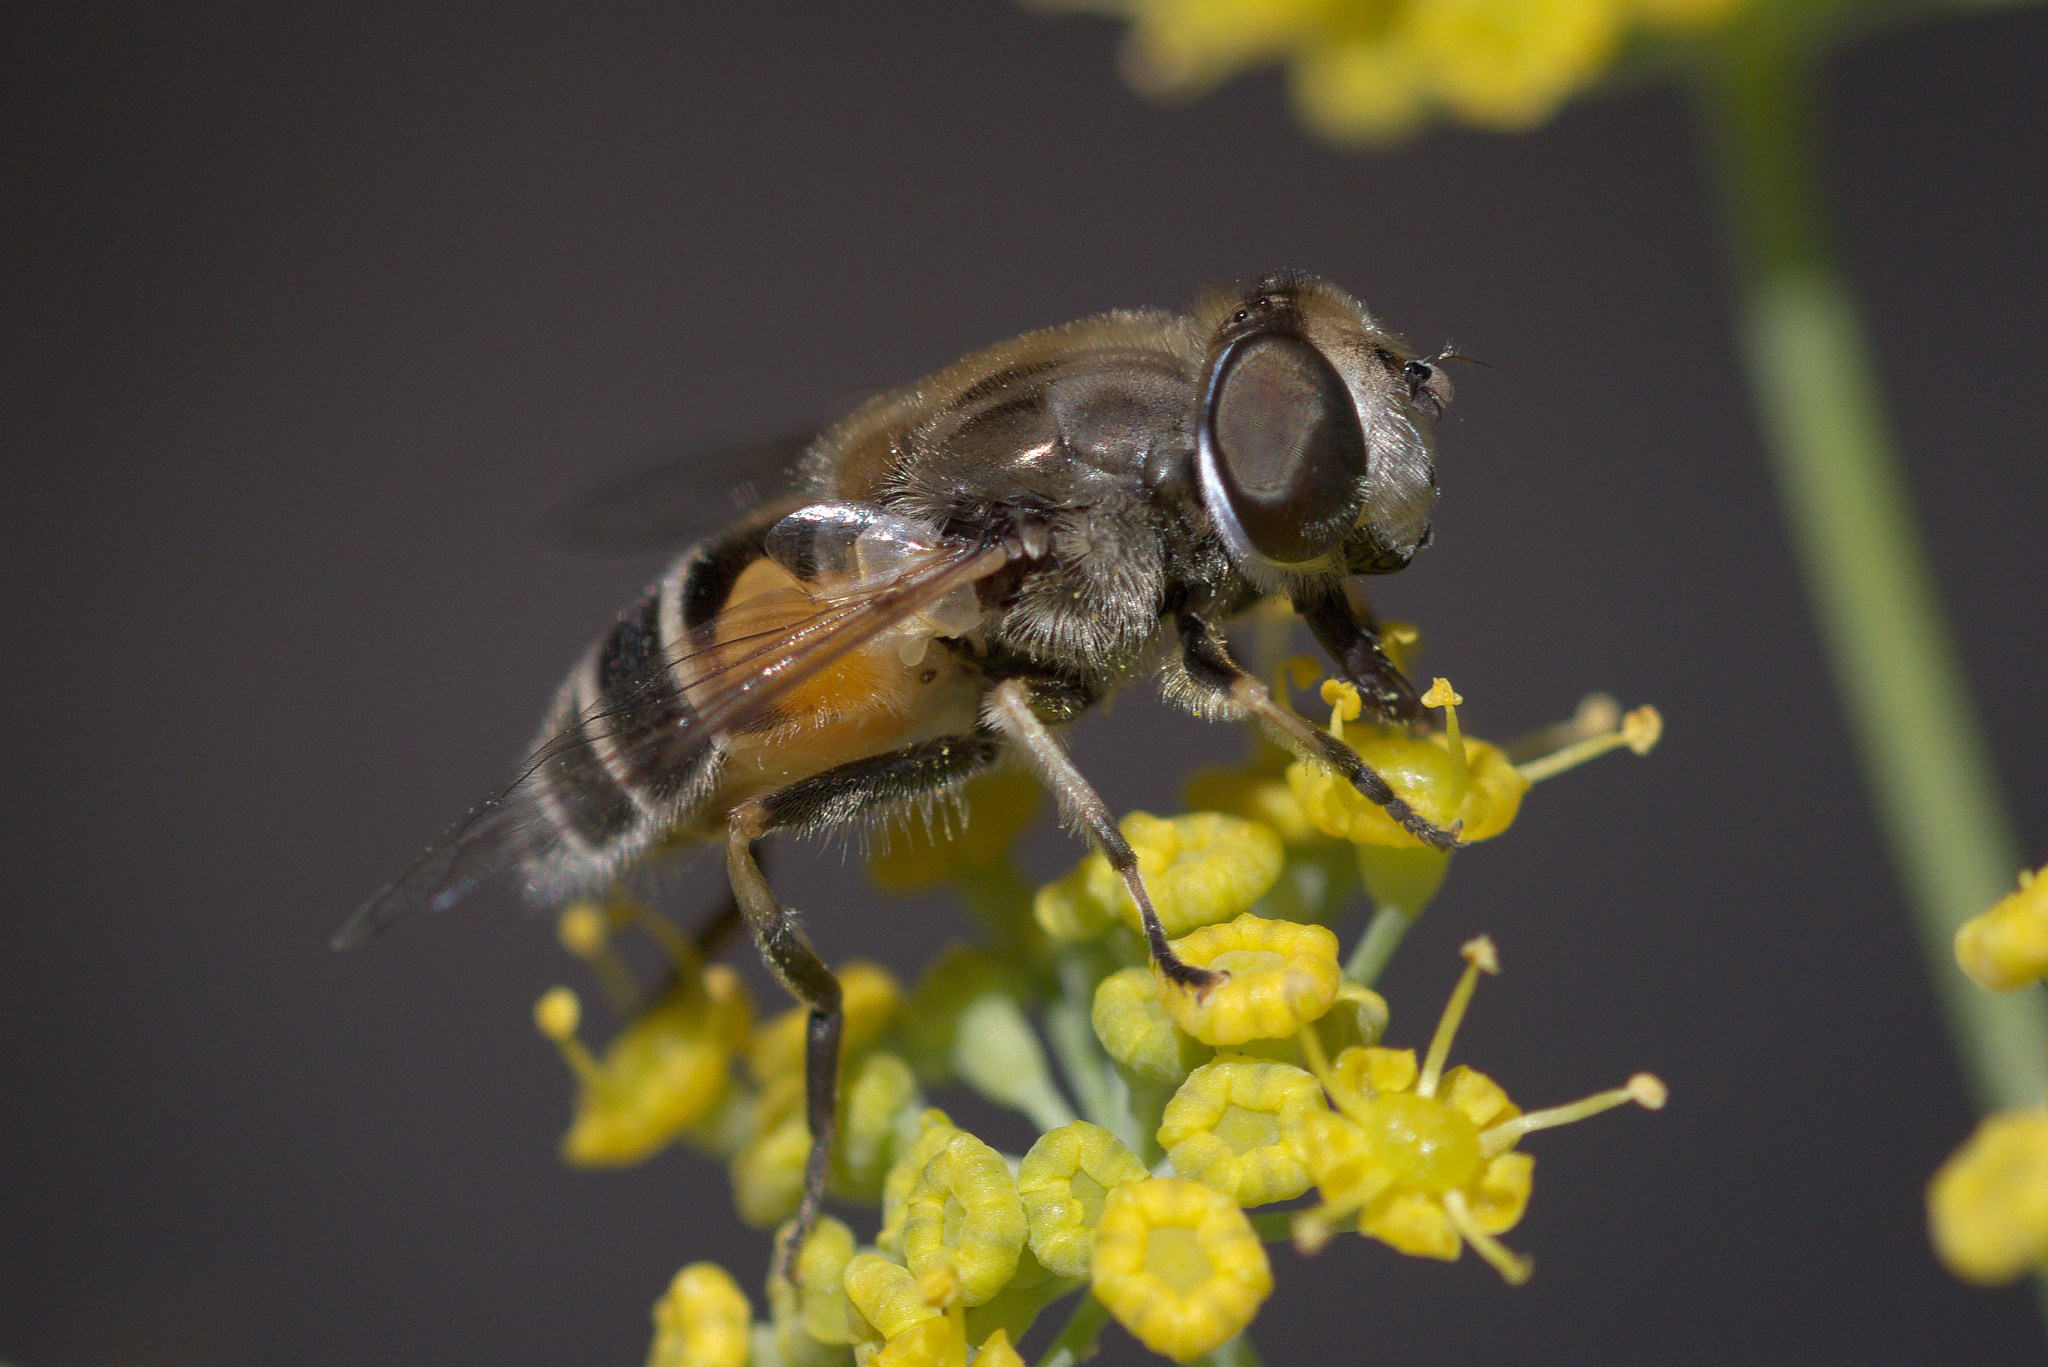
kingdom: Animalia
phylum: Arthropoda
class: Insecta
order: Diptera
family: Syrphidae
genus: Eristalis
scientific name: Eristalis arbustorum
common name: Hover fly
